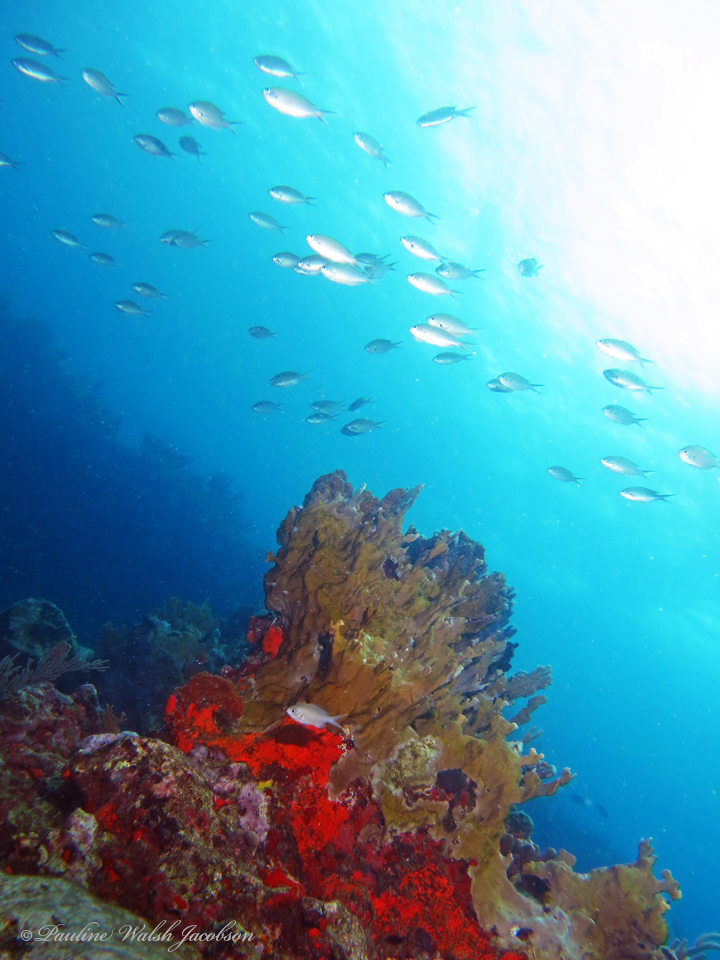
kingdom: Animalia
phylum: Chordata
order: Perciformes
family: Pomacentridae
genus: Chromis
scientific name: Chromis multilineata
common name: Brown chromis
